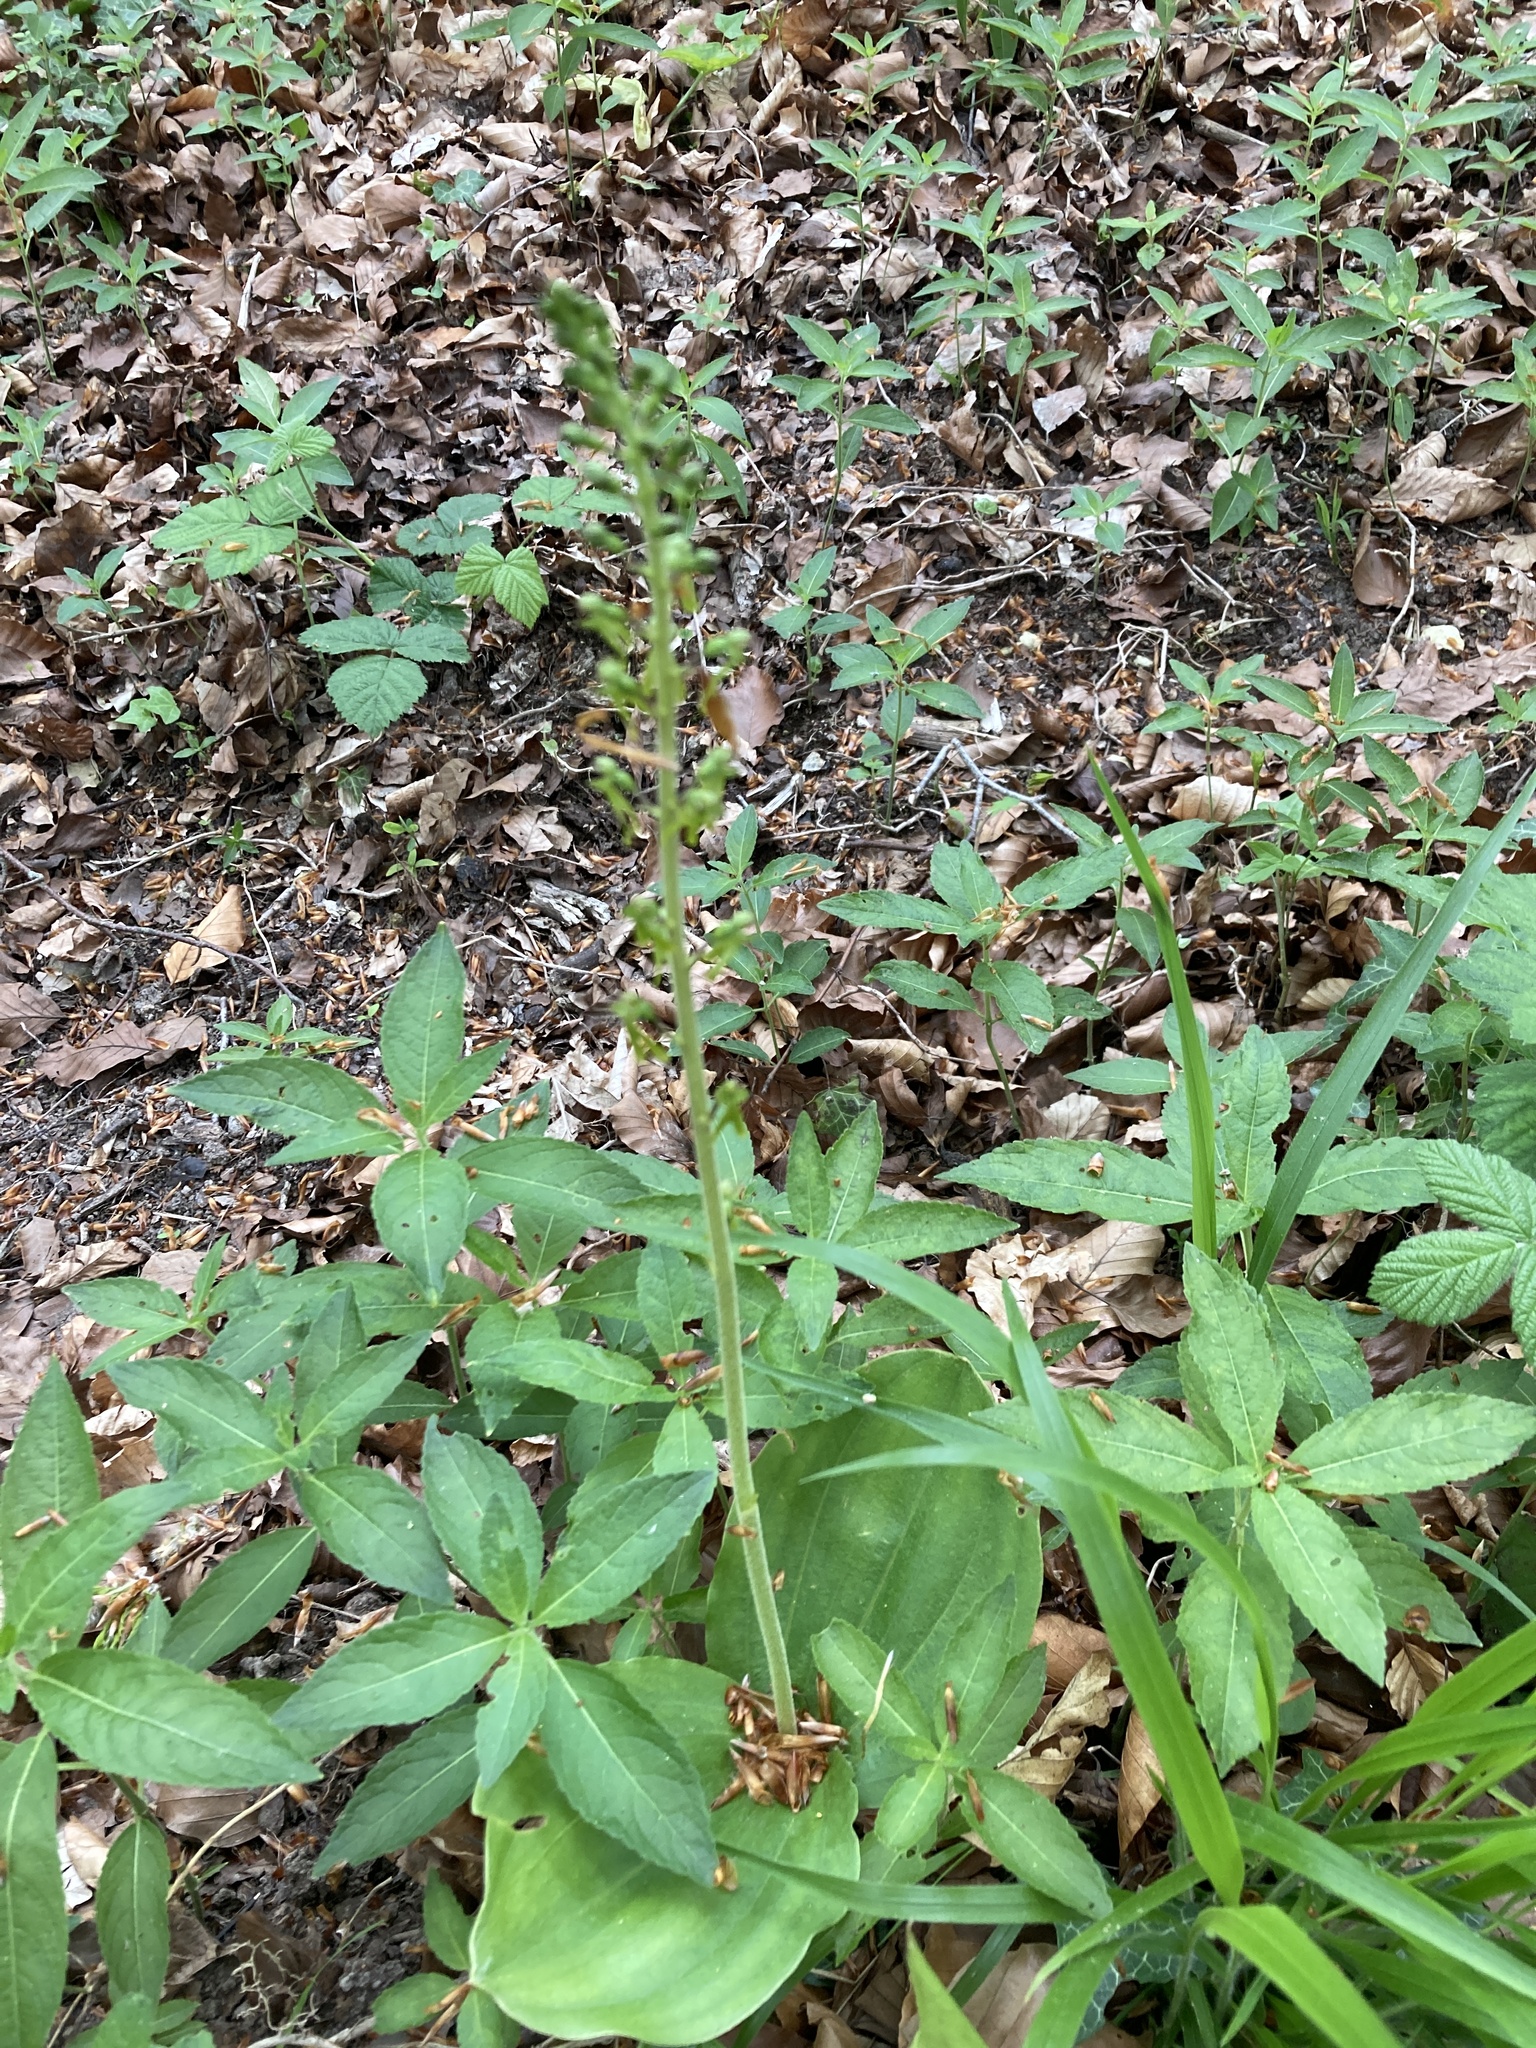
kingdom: Plantae
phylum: Tracheophyta
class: Liliopsida
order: Asparagales
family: Orchidaceae
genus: Neottia
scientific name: Neottia ovata
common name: Common twayblade
